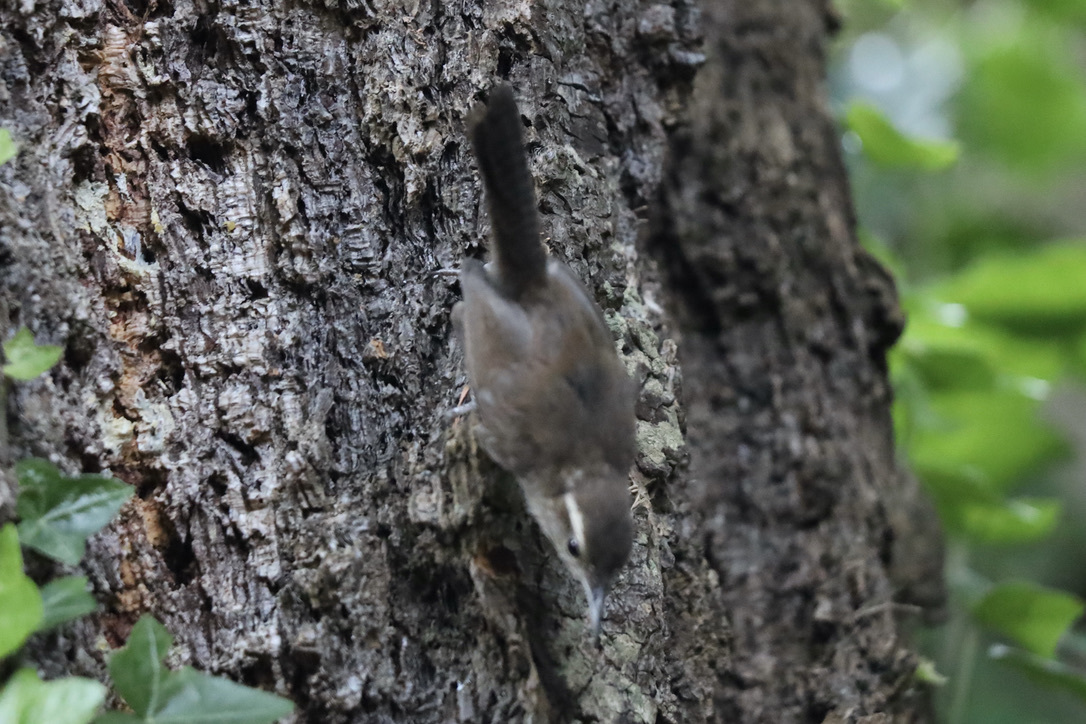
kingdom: Animalia
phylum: Chordata
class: Aves
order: Passeriformes
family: Troglodytidae
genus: Thryomanes
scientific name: Thryomanes bewickii
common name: Bewick's wren
